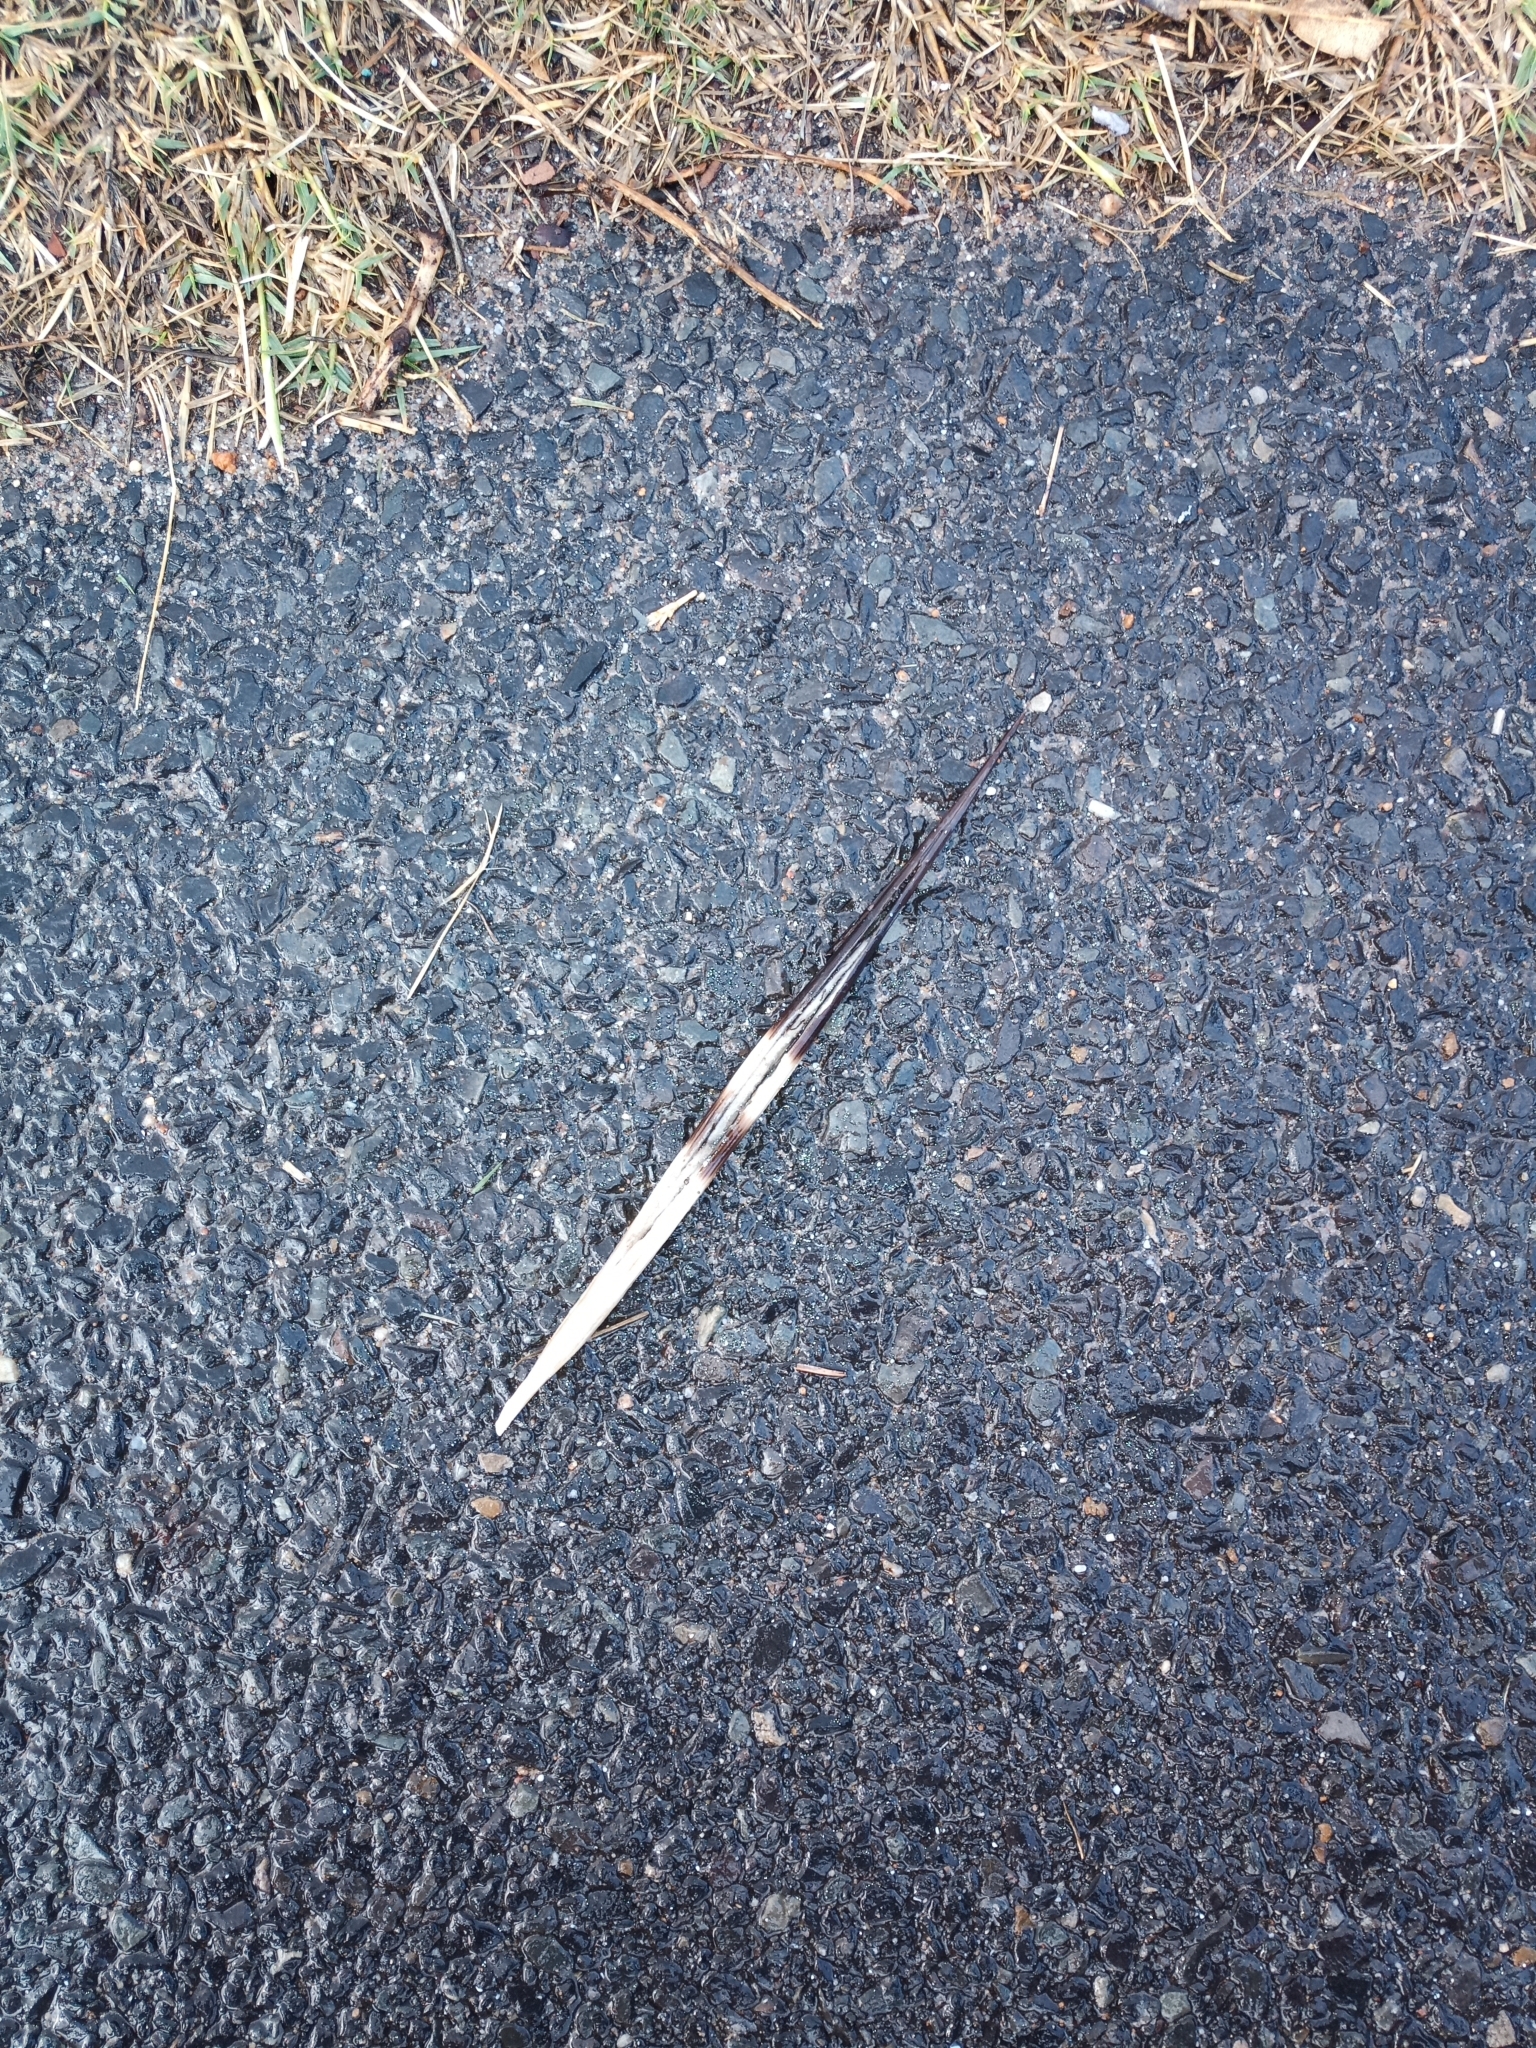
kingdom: Animalia
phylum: Chordata
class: Mammalia
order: Rodentia
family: Hystricidae
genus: Hystrix
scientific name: Hystrix africaeaustralis
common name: Cape porcupine
